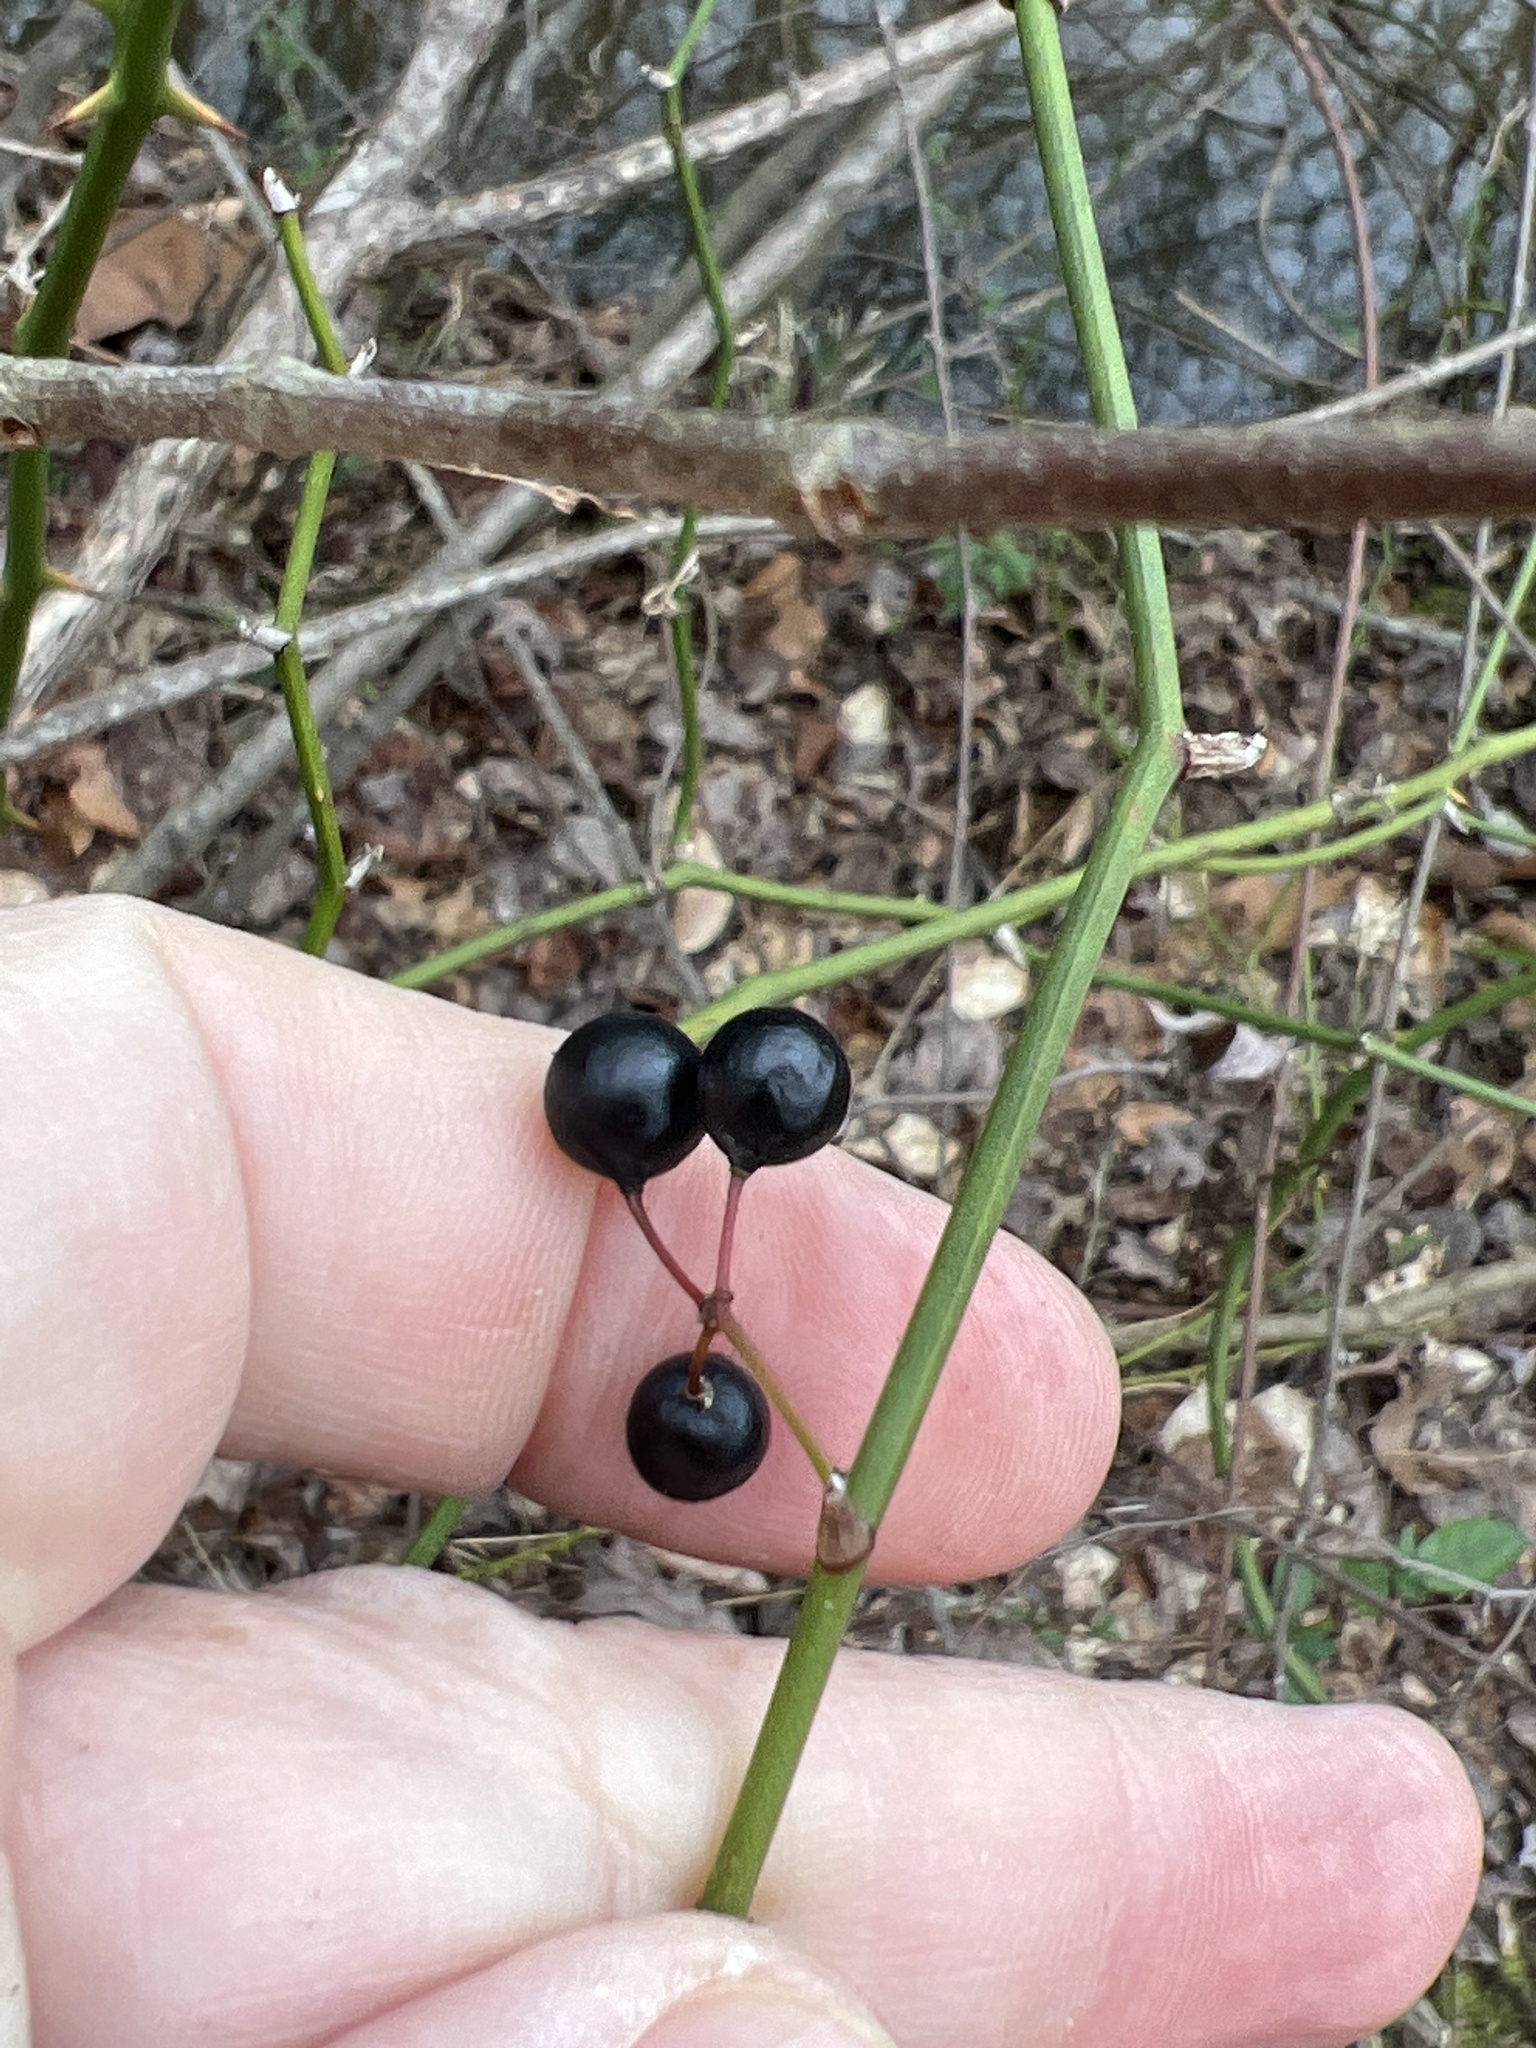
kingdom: Plantae
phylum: Tracheophyta
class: Liliopsida
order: Liliales
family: Smilacaceae
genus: Smilax
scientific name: Smilax rotundifolia
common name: Bullbriar
